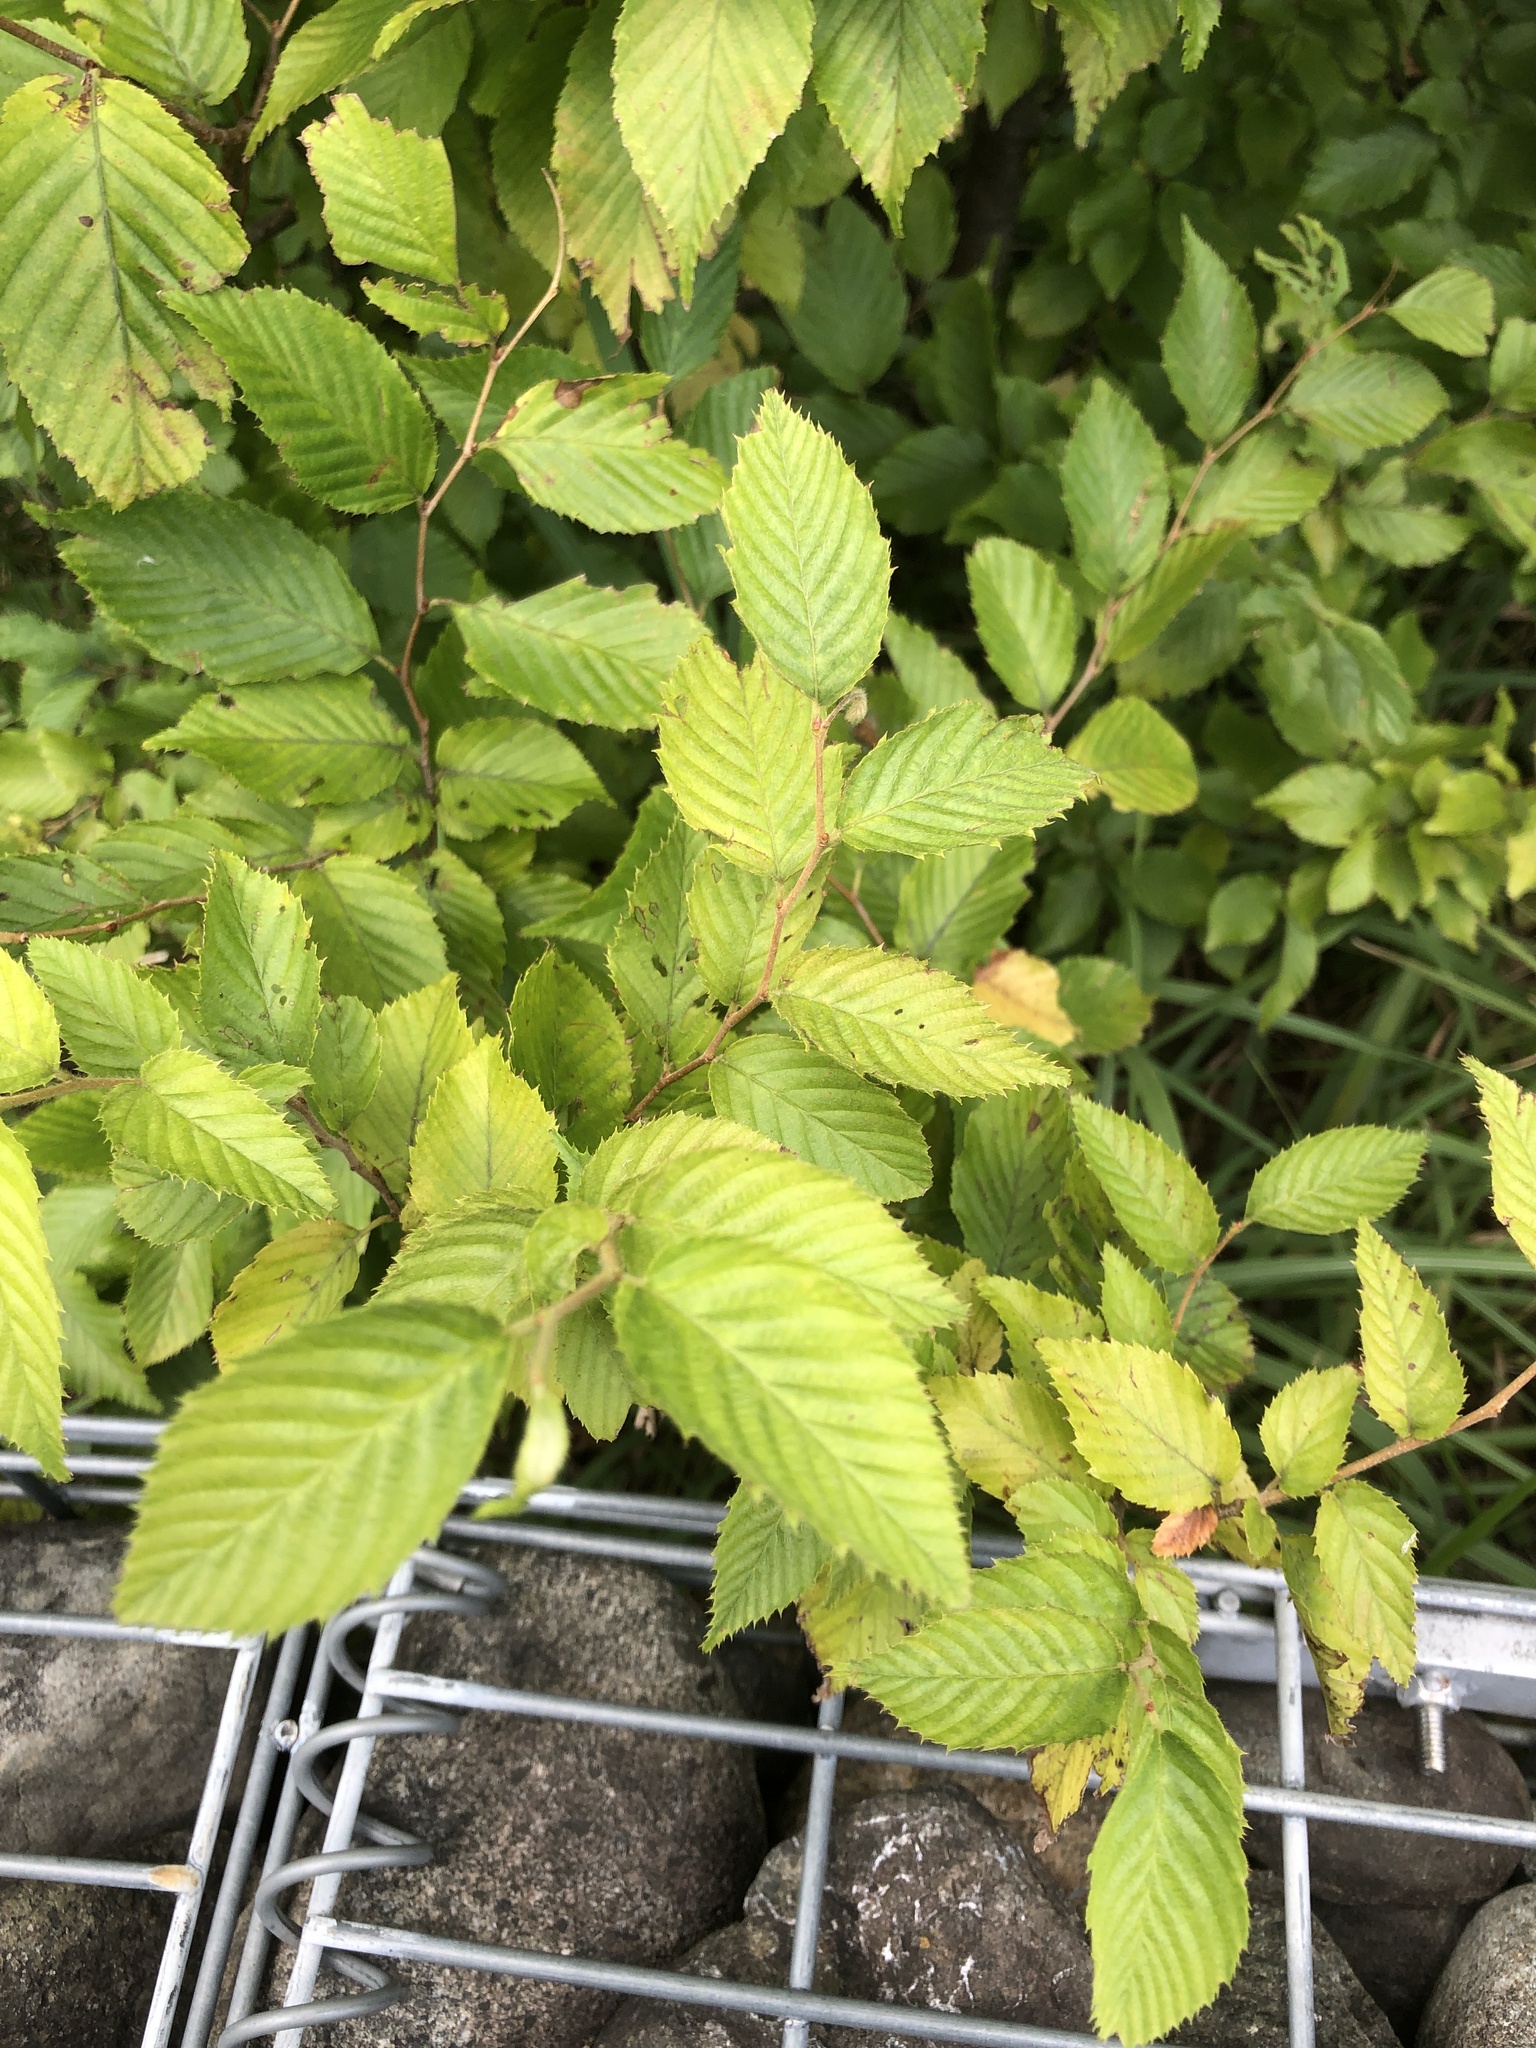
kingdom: Plantae
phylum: Tracheophyta
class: Magnoliopsida
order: Fagales
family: Betulaceae
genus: Carpinus
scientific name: Carpinus laxiflora
